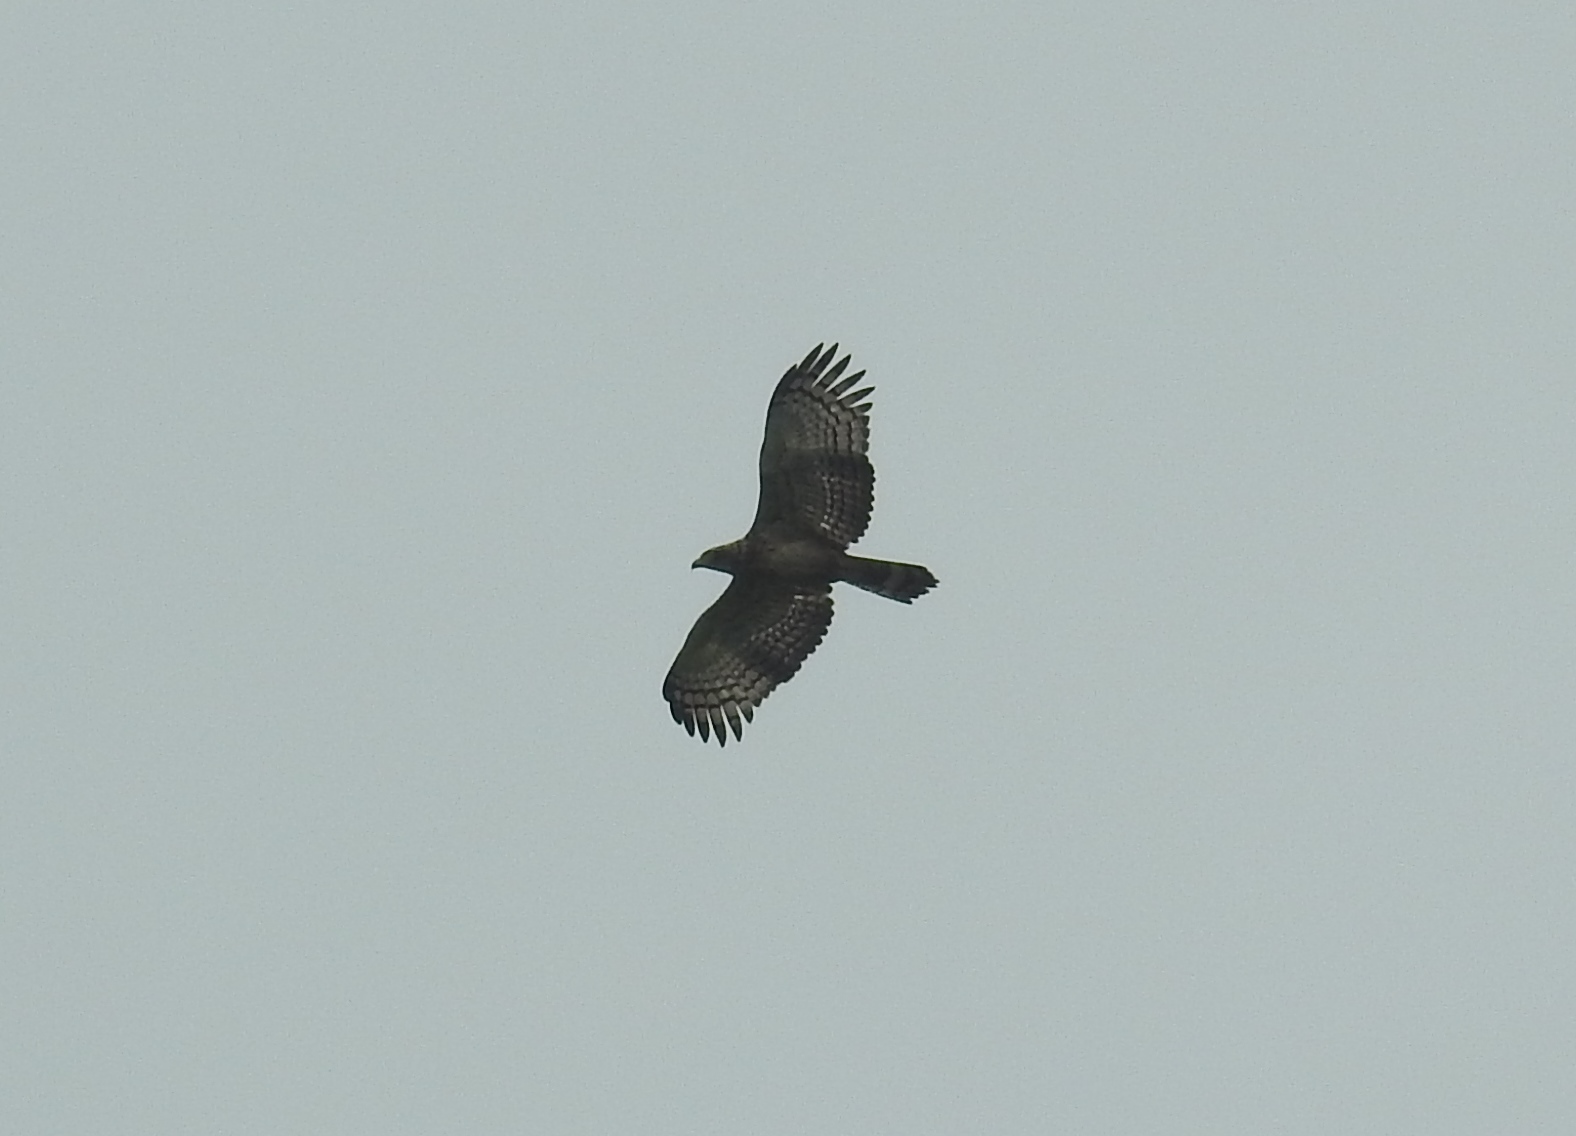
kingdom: Animalia
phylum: Chordata
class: Aves
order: Accipitriformes
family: Accipitridae
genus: Spilornis
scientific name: Spilornis cheela
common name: Crested serpent eagle
